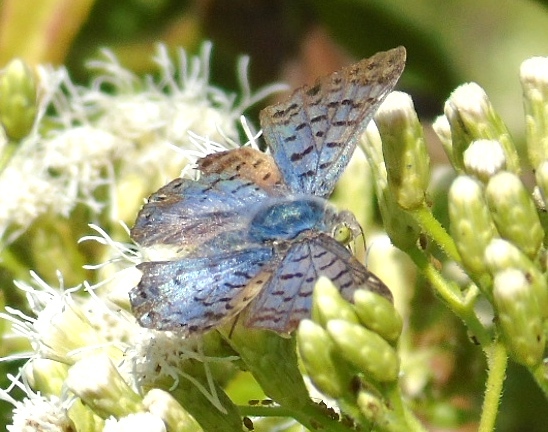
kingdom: Animalia
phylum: Arthropoda
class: Insecta
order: Lepidoptera
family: Riodinidae
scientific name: Riodinidae
